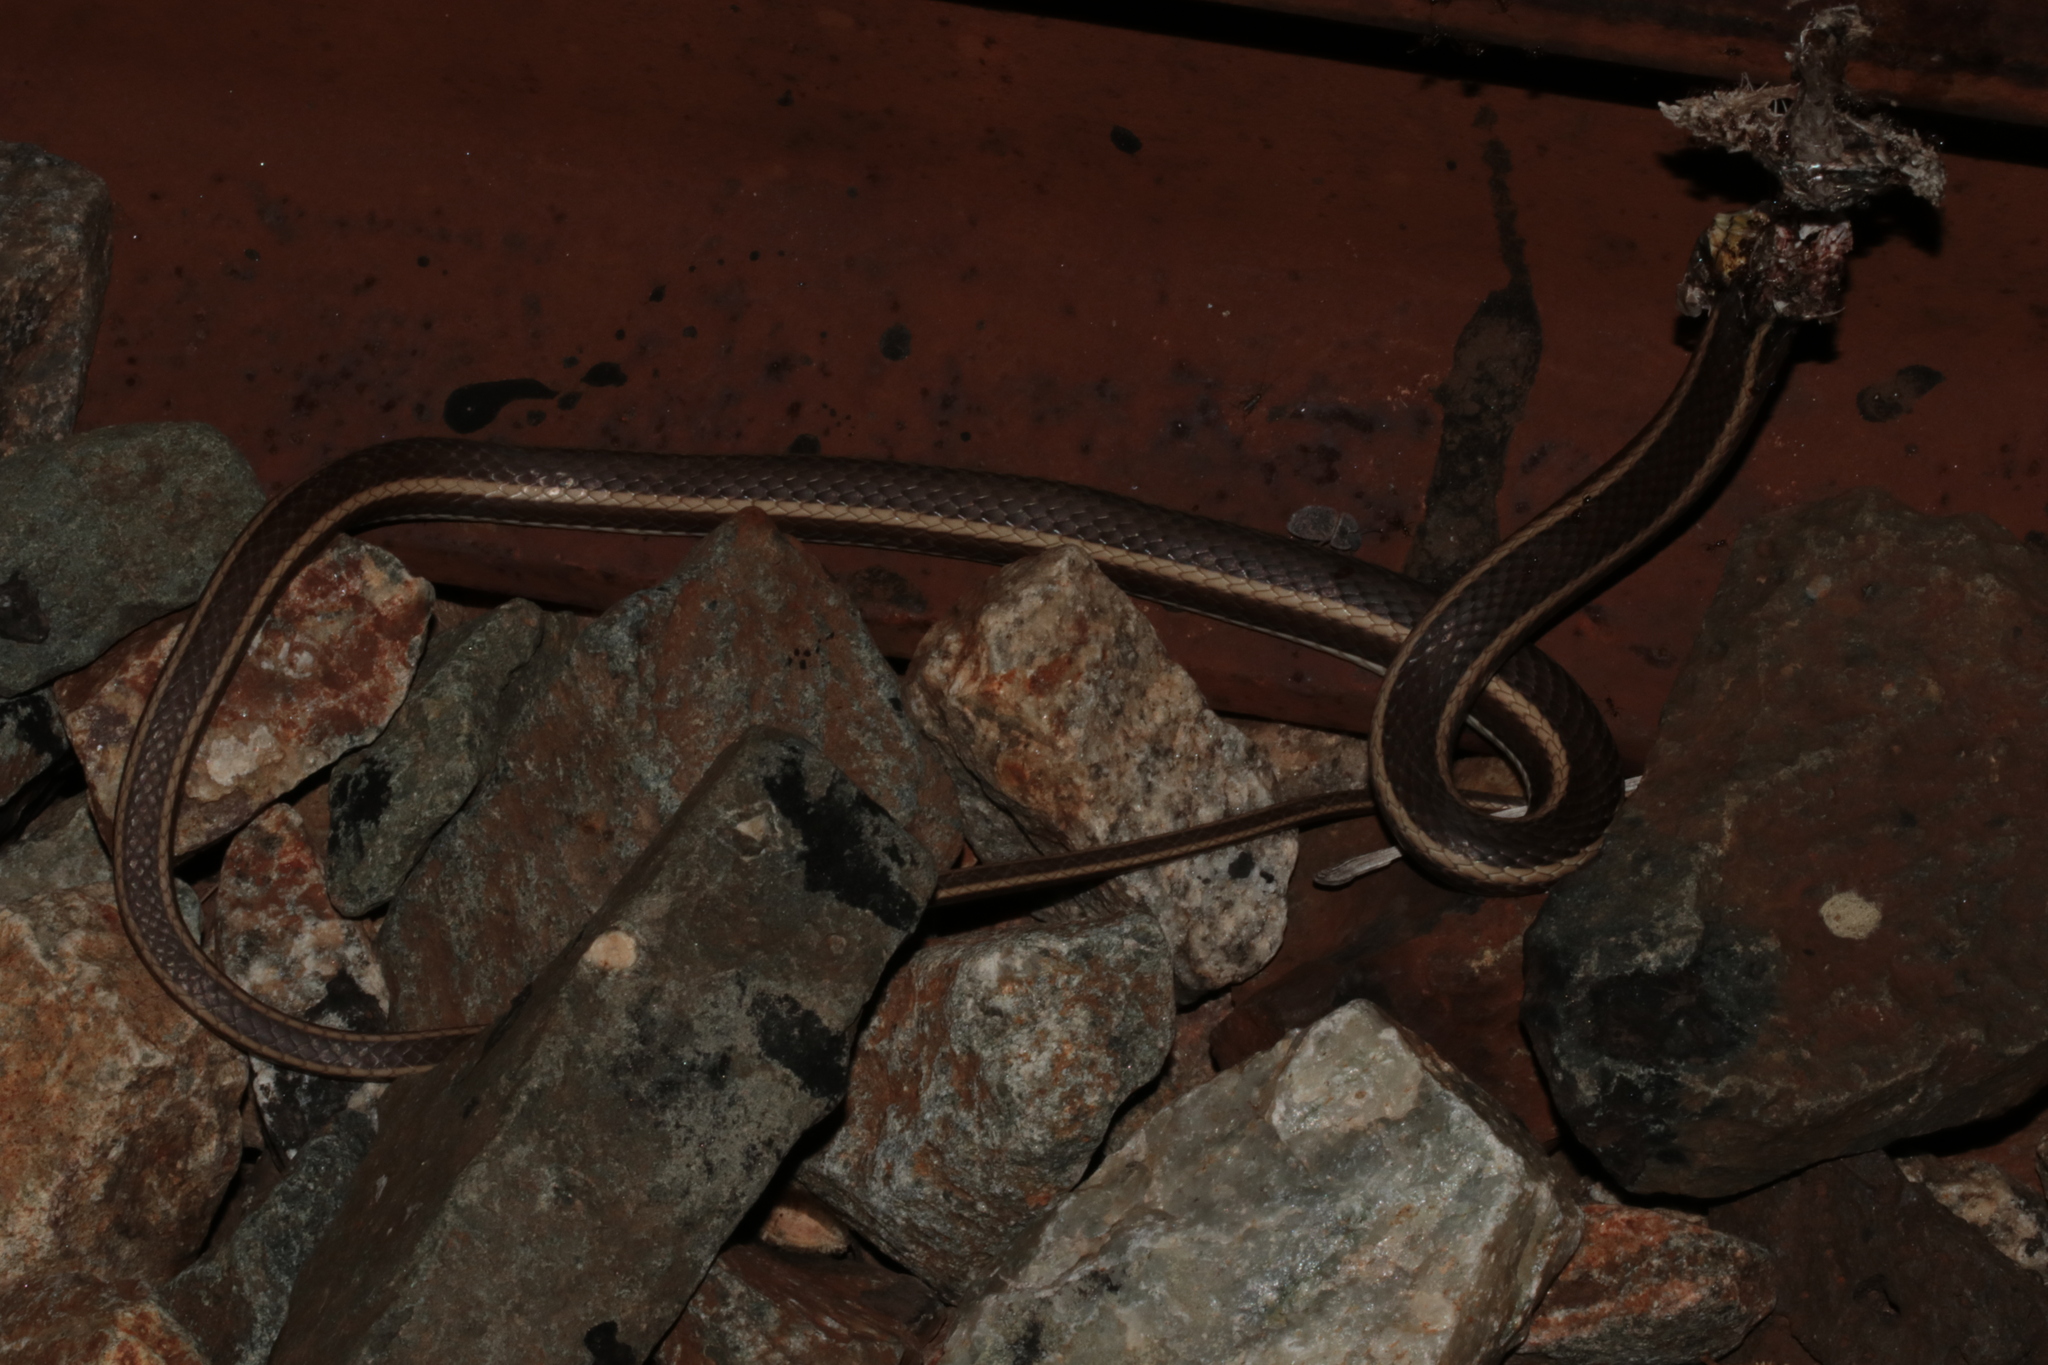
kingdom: Animalia
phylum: Chordata
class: Squamata
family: Psammophiidae
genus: Psammophis
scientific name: Psammophis subtaeniatus
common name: Stripe-bellied sand snake
